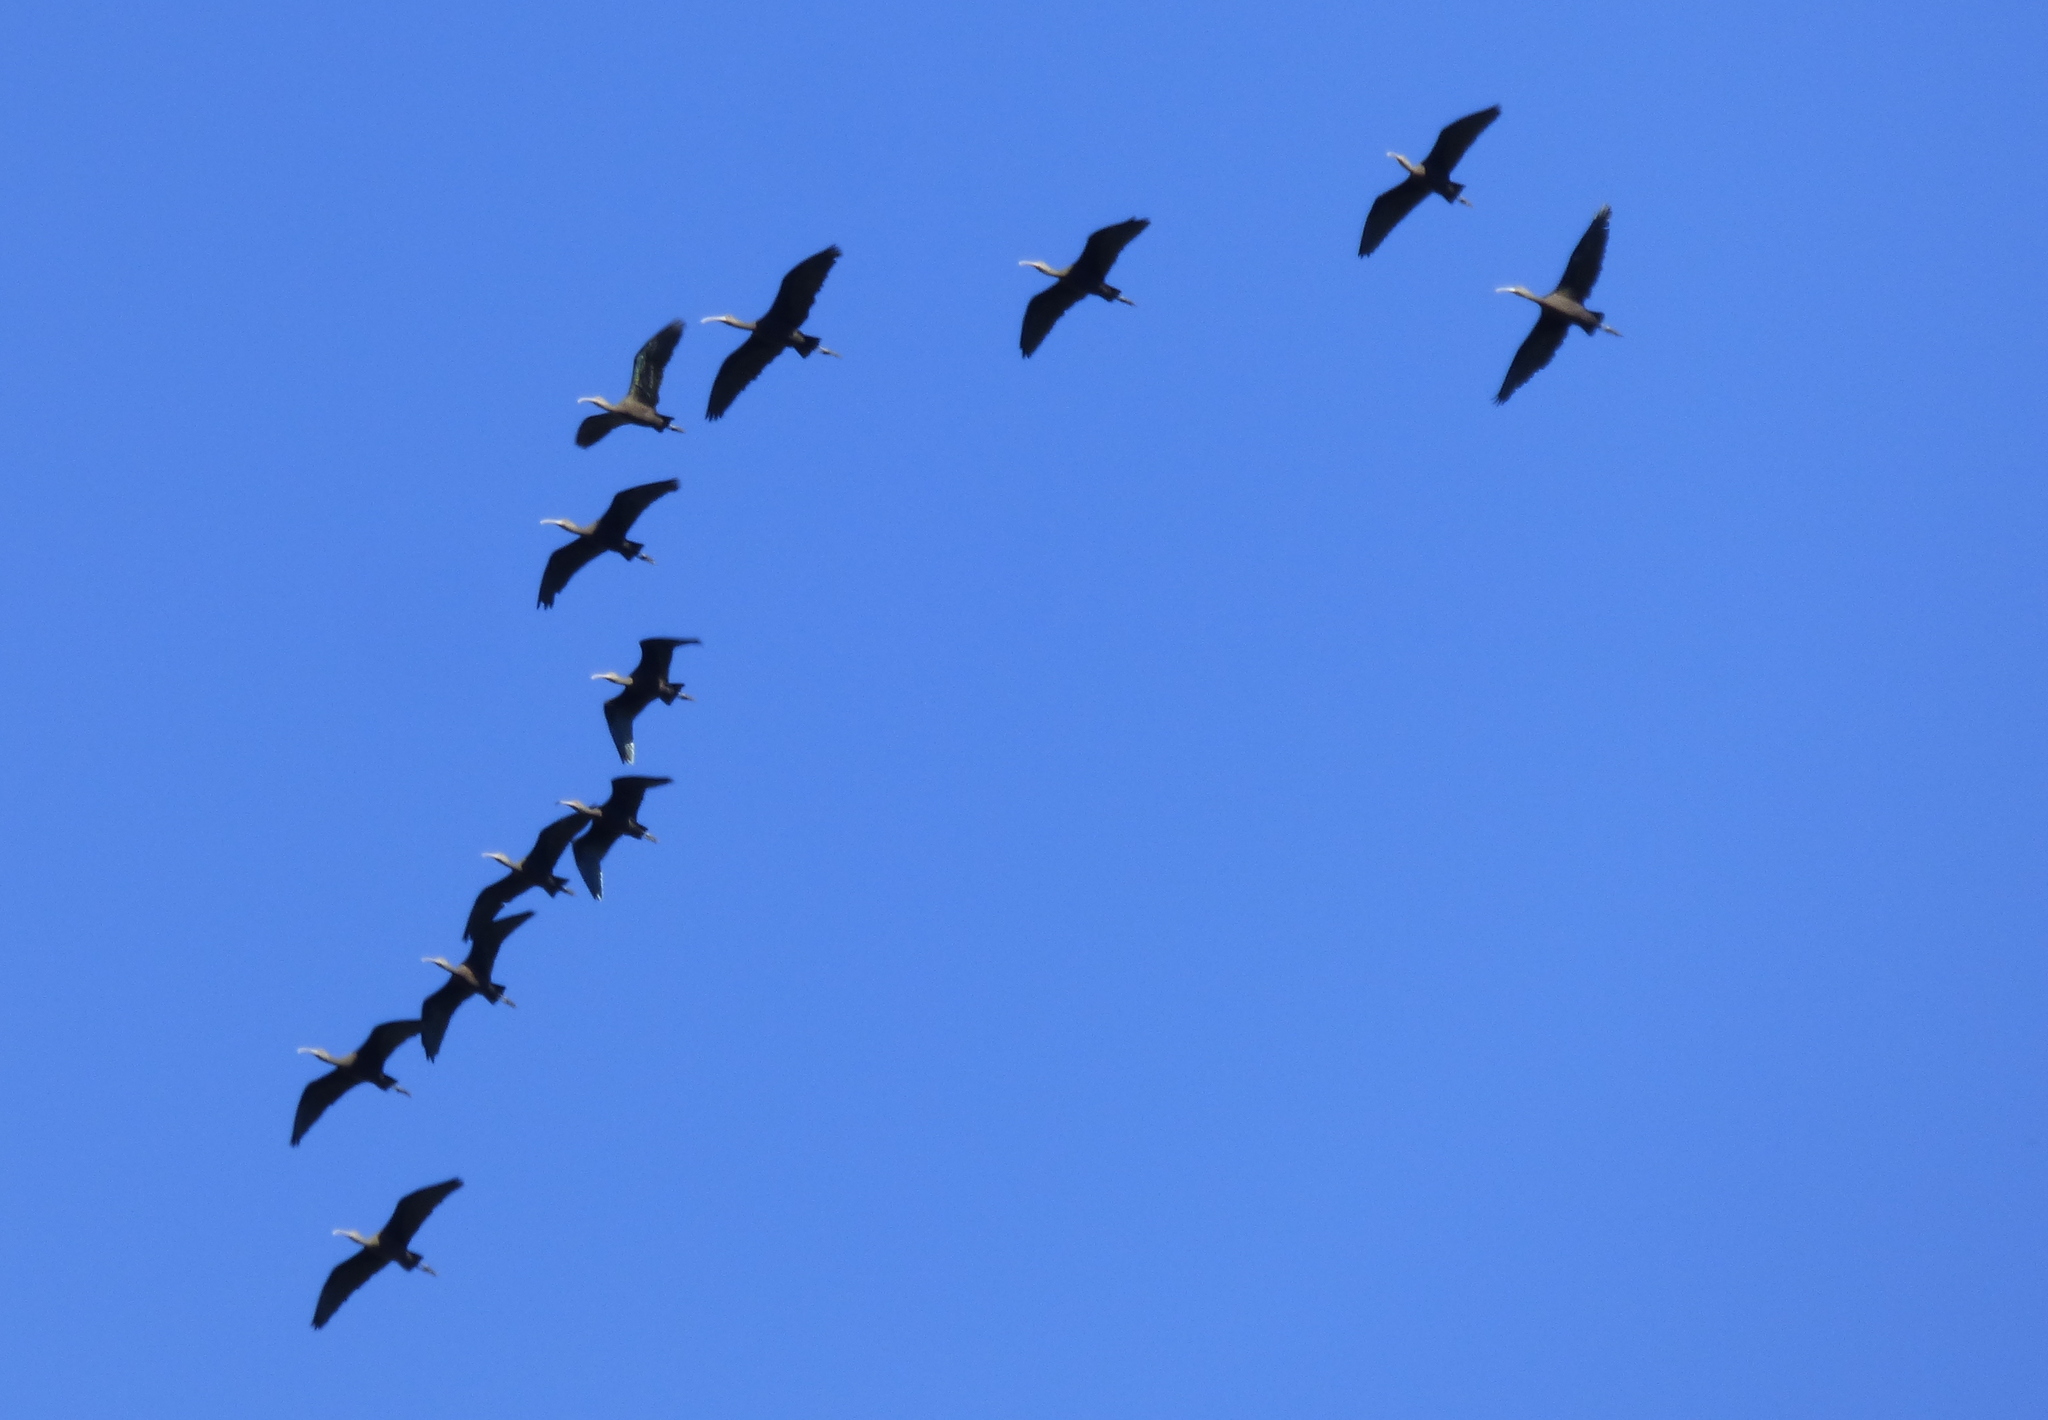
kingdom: Animalia
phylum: Chordata
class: Aves
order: Pelecaniformes
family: Threskiornithidae
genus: Plegadis
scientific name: Plegadis chihi
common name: White-faced ibis
